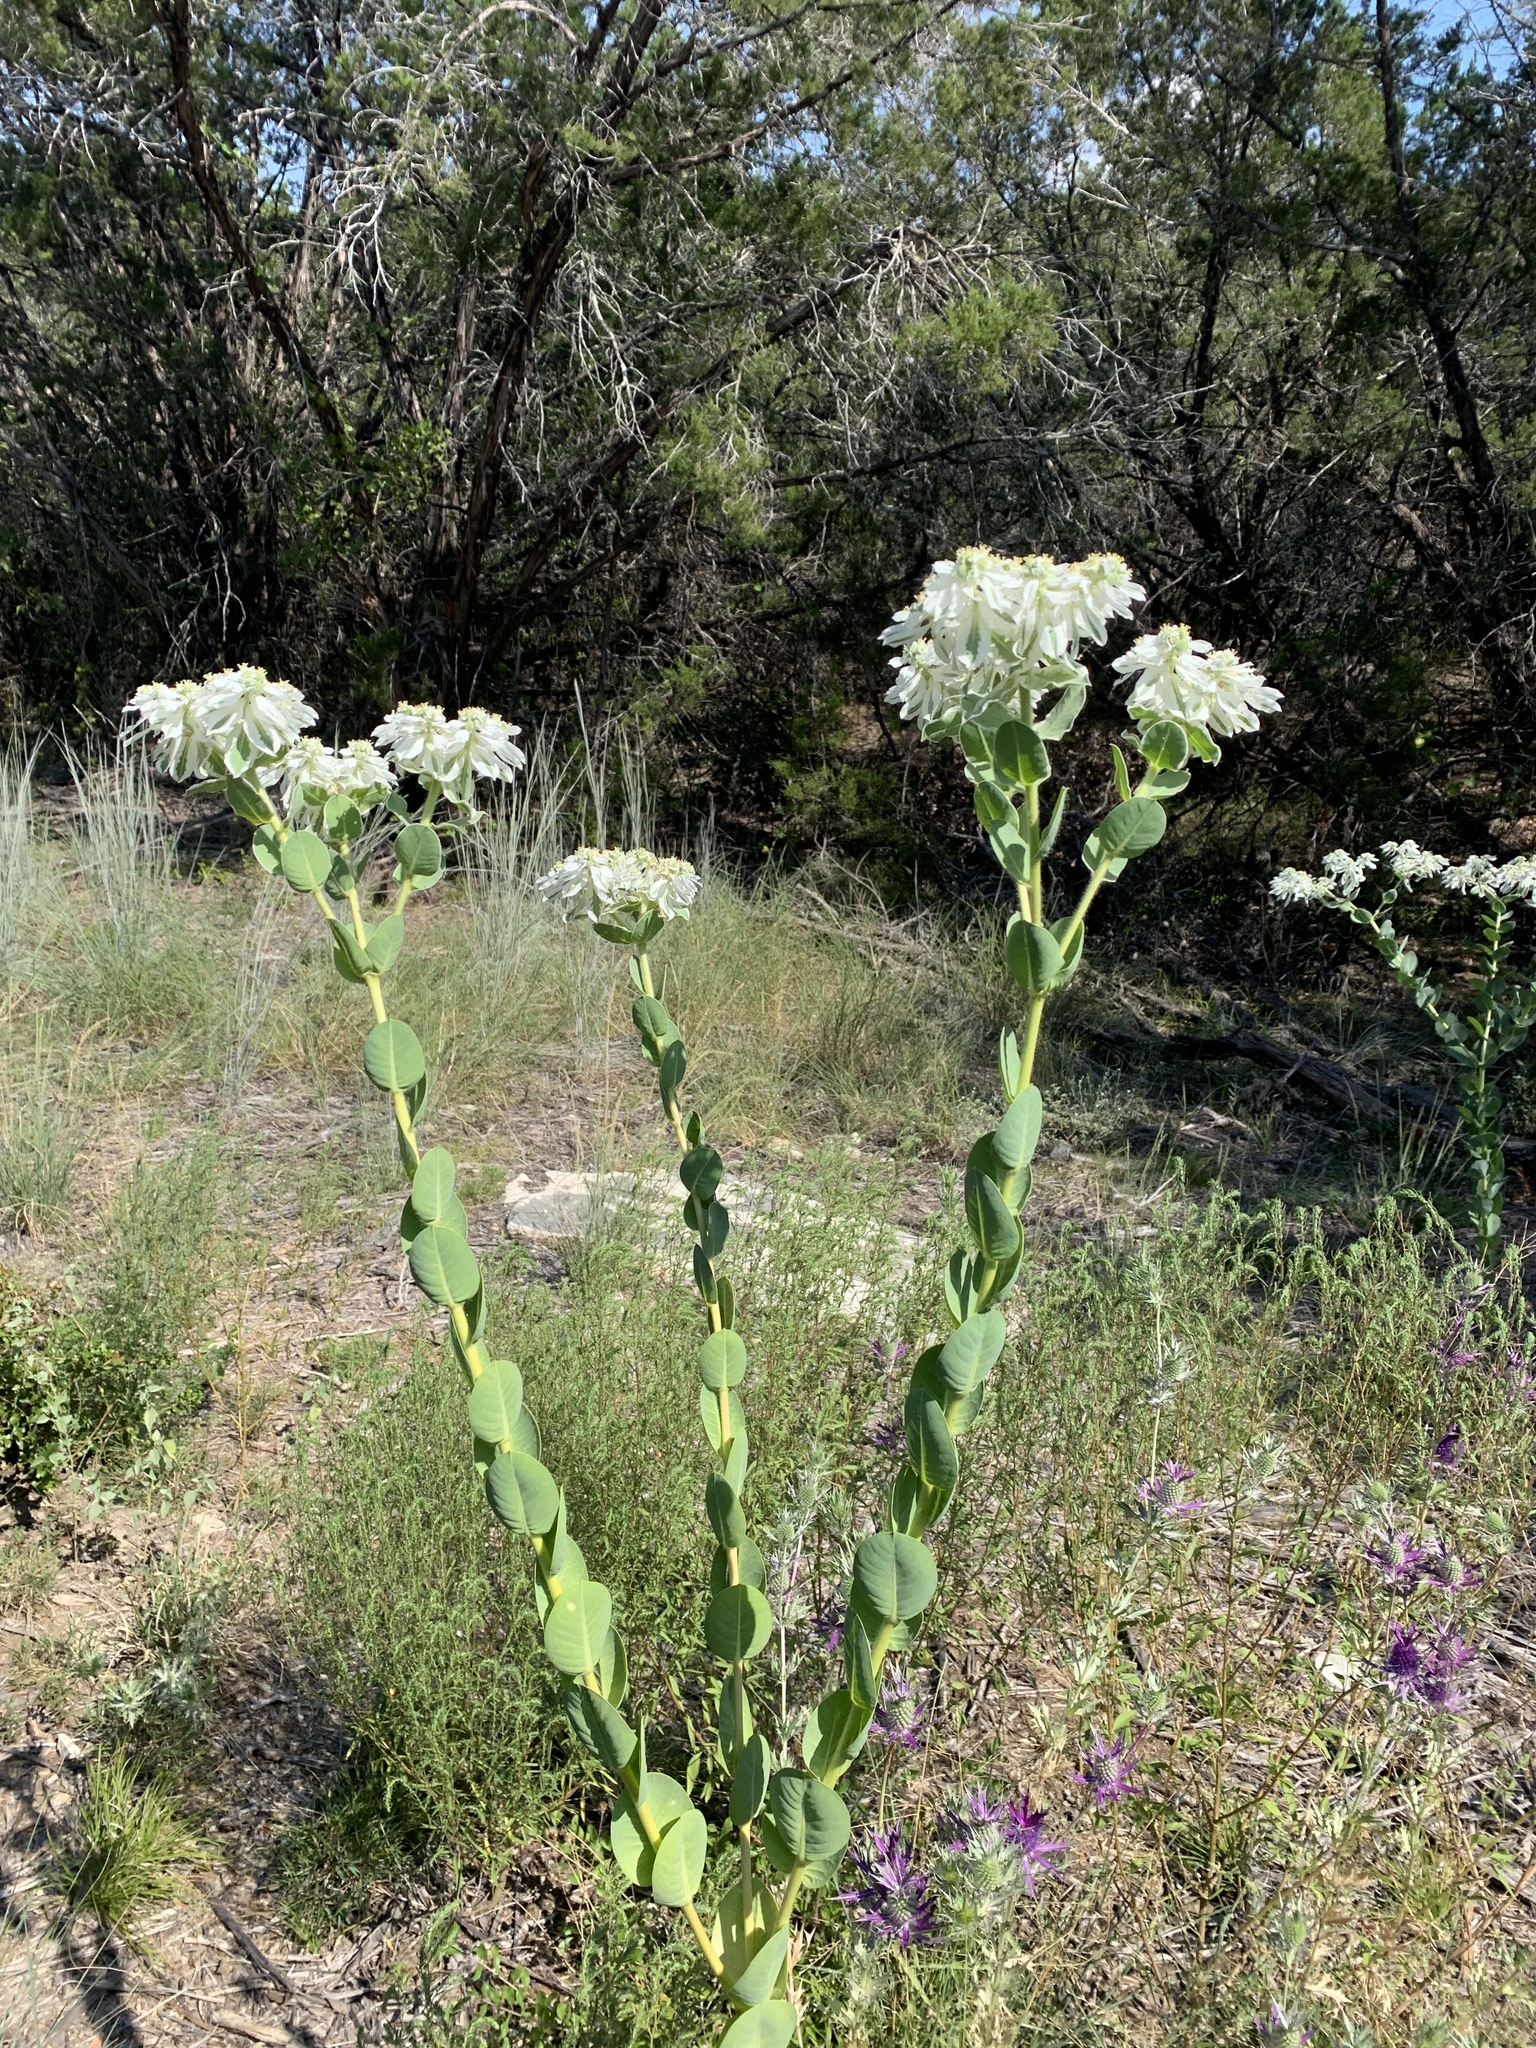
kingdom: Plantae
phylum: Tracheophyta
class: Magnoliopsida
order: Malpighiales
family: Euphorbiaceae
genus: Euphorbia
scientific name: Euphorbia marginata
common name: Ghostweed
